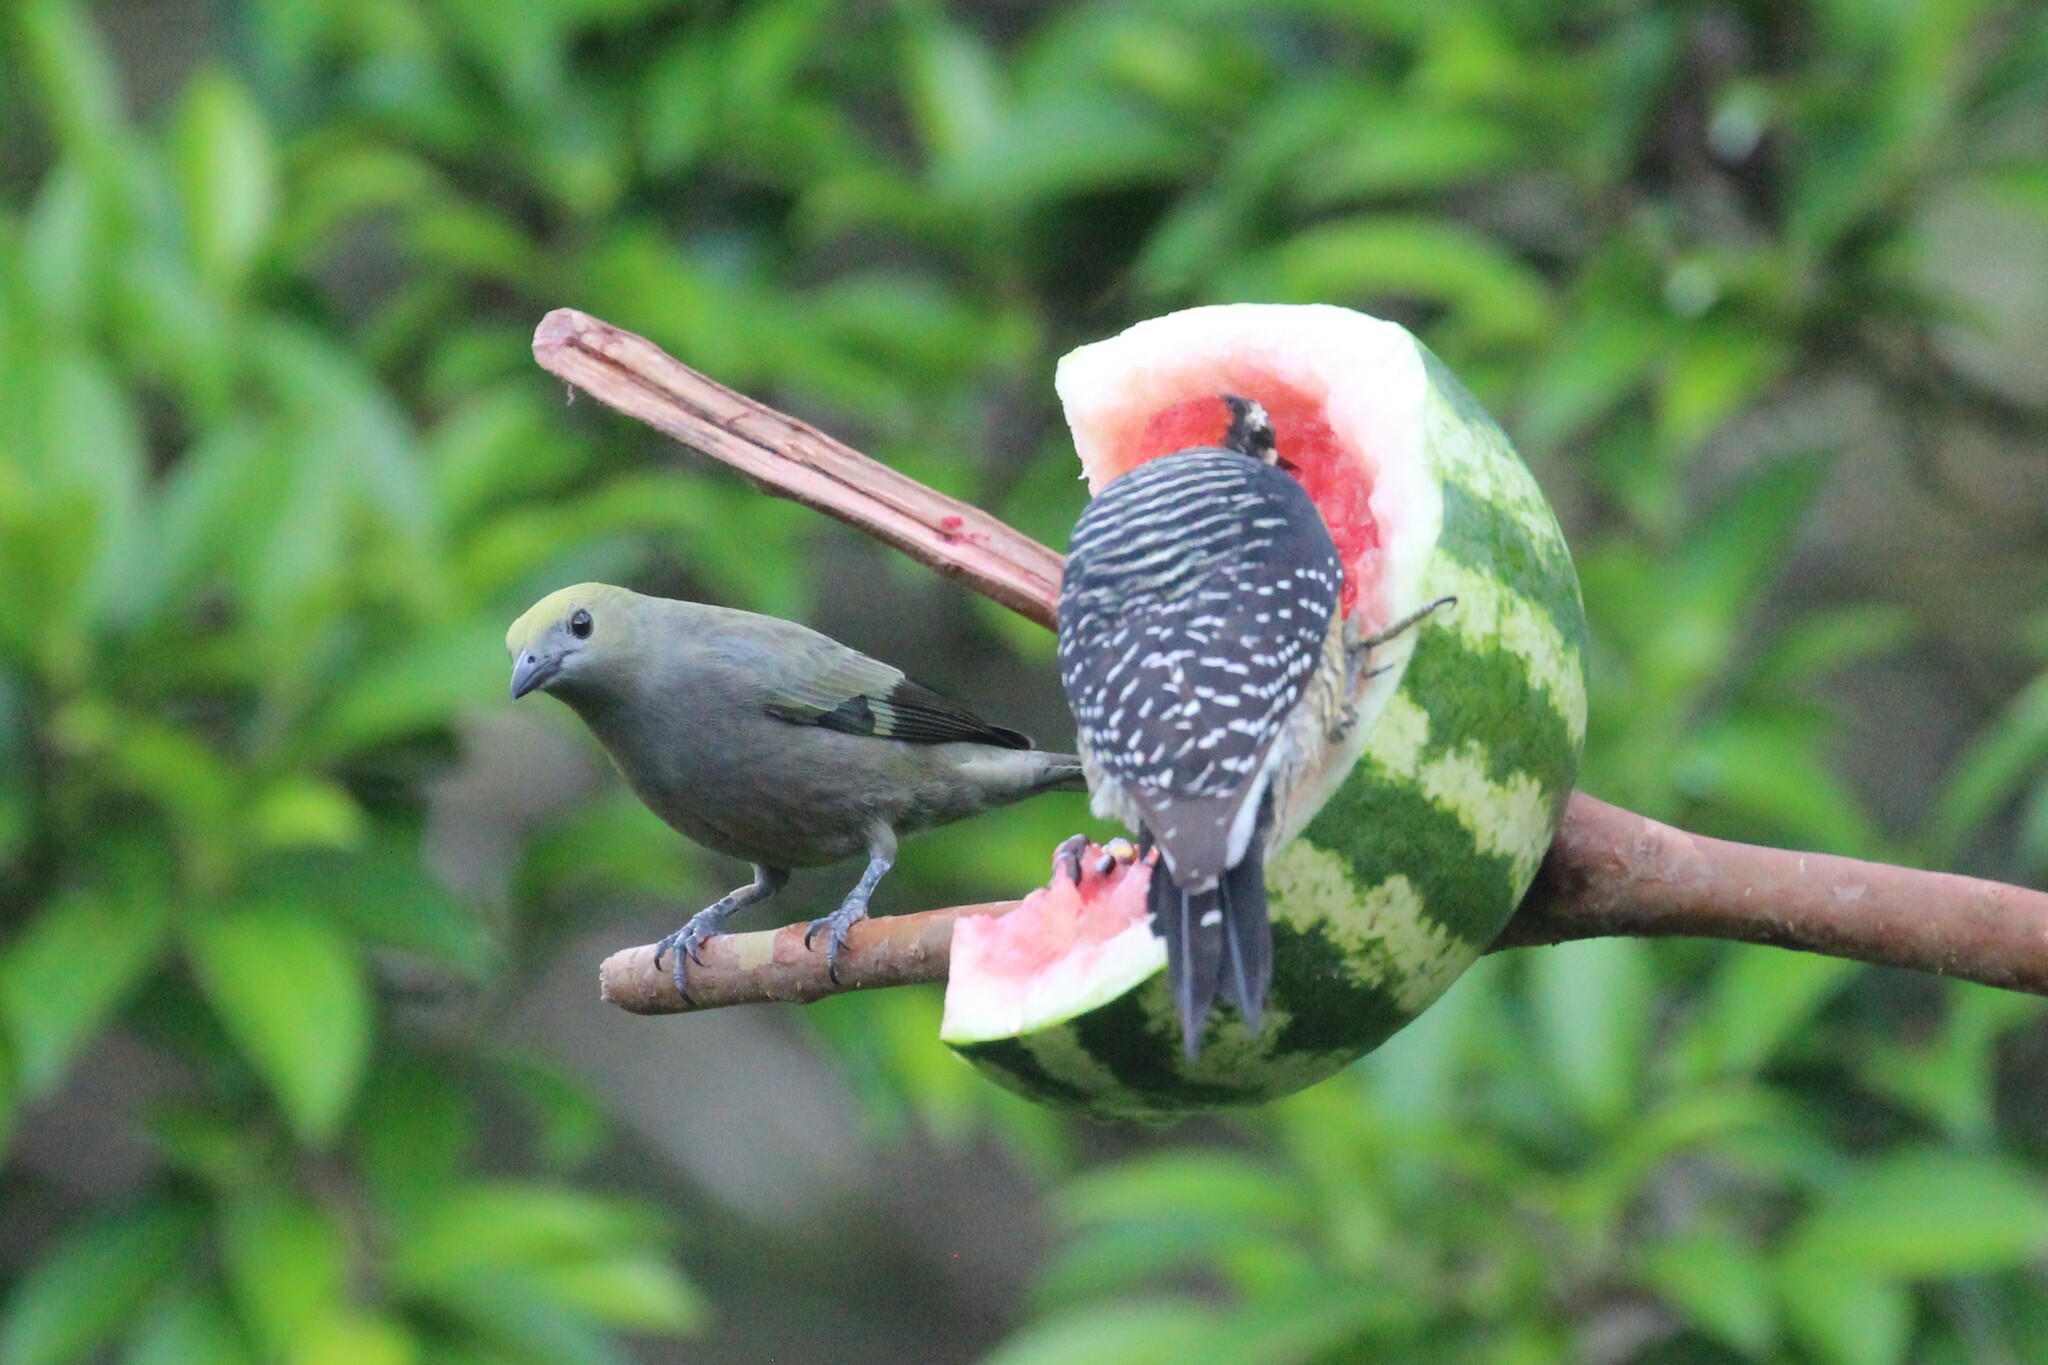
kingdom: Animalia
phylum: Chordata
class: Aves
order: Passeriformes
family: Thraupidae
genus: Thraupis
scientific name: Thraupis palmarum
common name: Palm tanager
